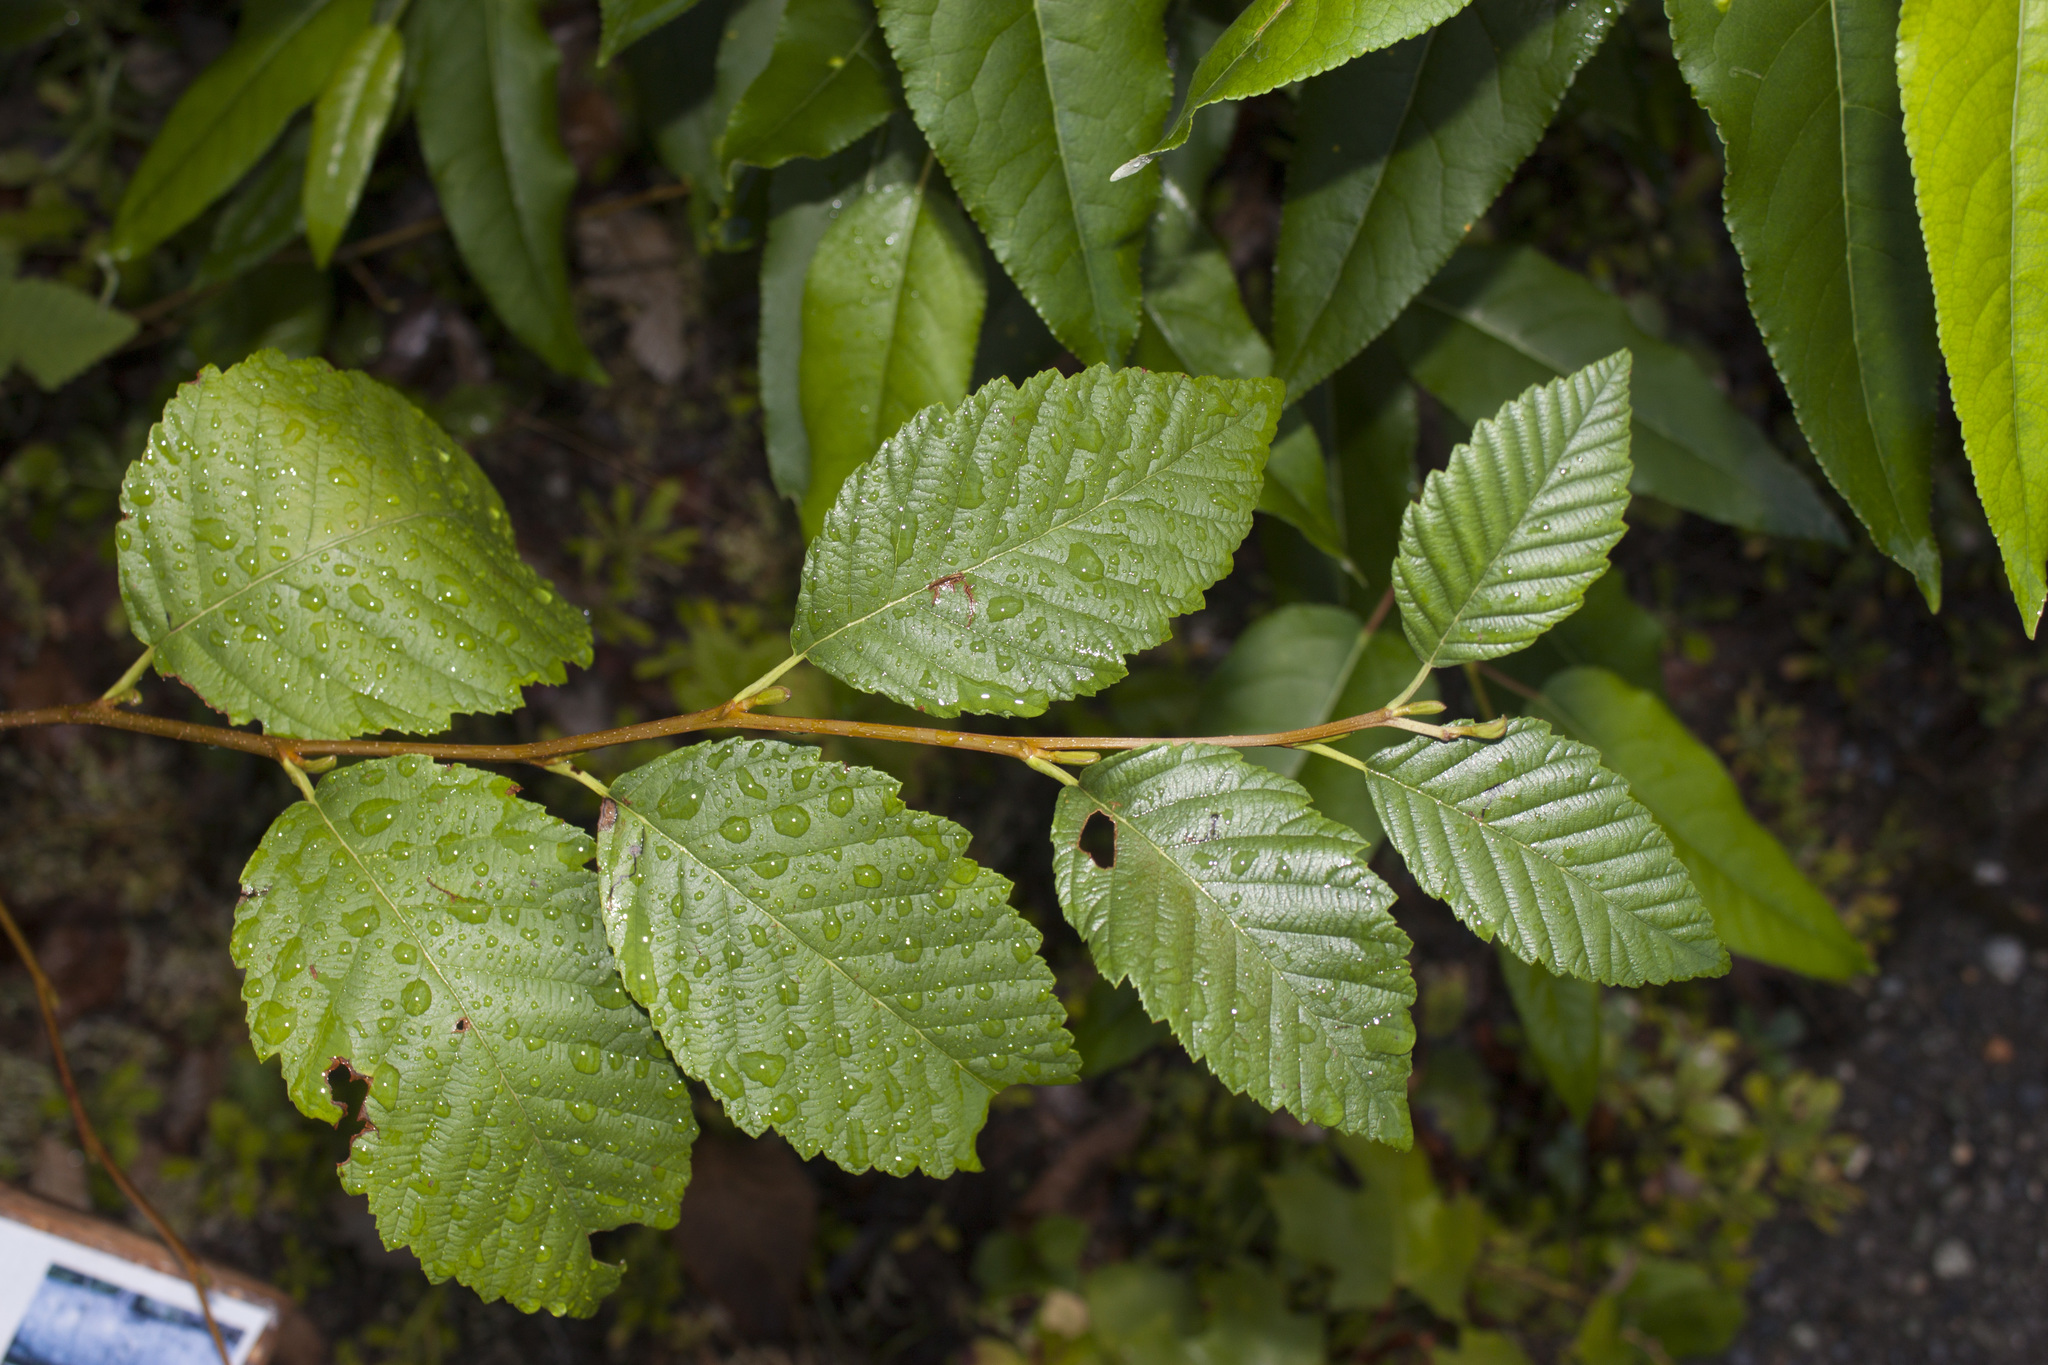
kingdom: Plantae
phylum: Tracheophyta
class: Magnoliopsida
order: Fagales
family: Betulaceae
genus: Alnus
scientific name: Alnus rubra
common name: Red alder
